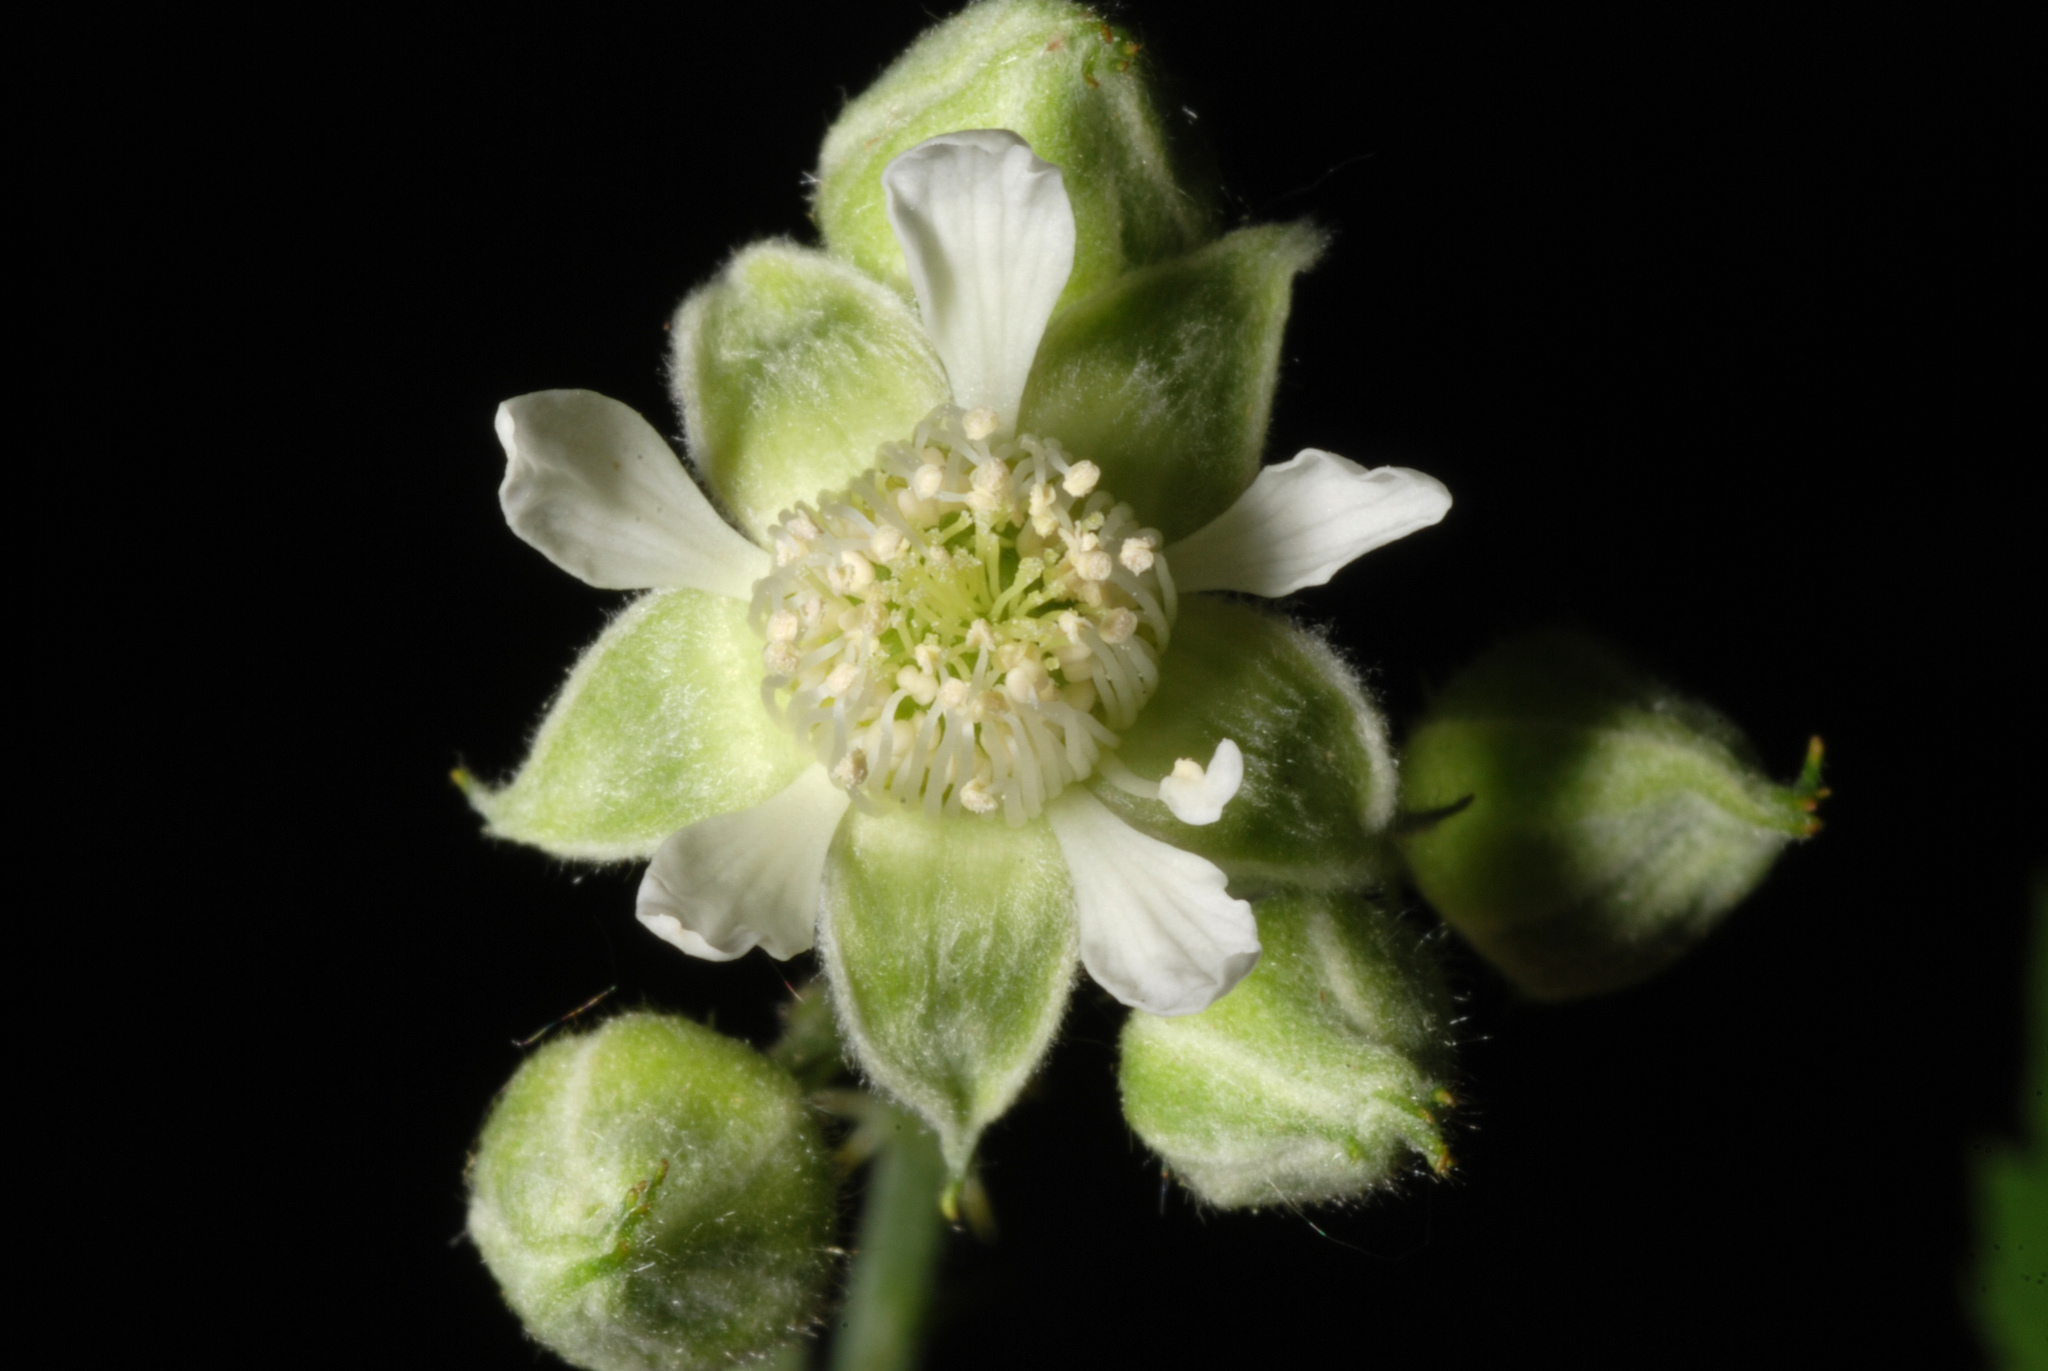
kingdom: Plantae
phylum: Tracheophyta
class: Magnoliopsida
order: Rosales
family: Rosaceae
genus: Rubus
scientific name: Rubus occidentalis
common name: Black raspberry
